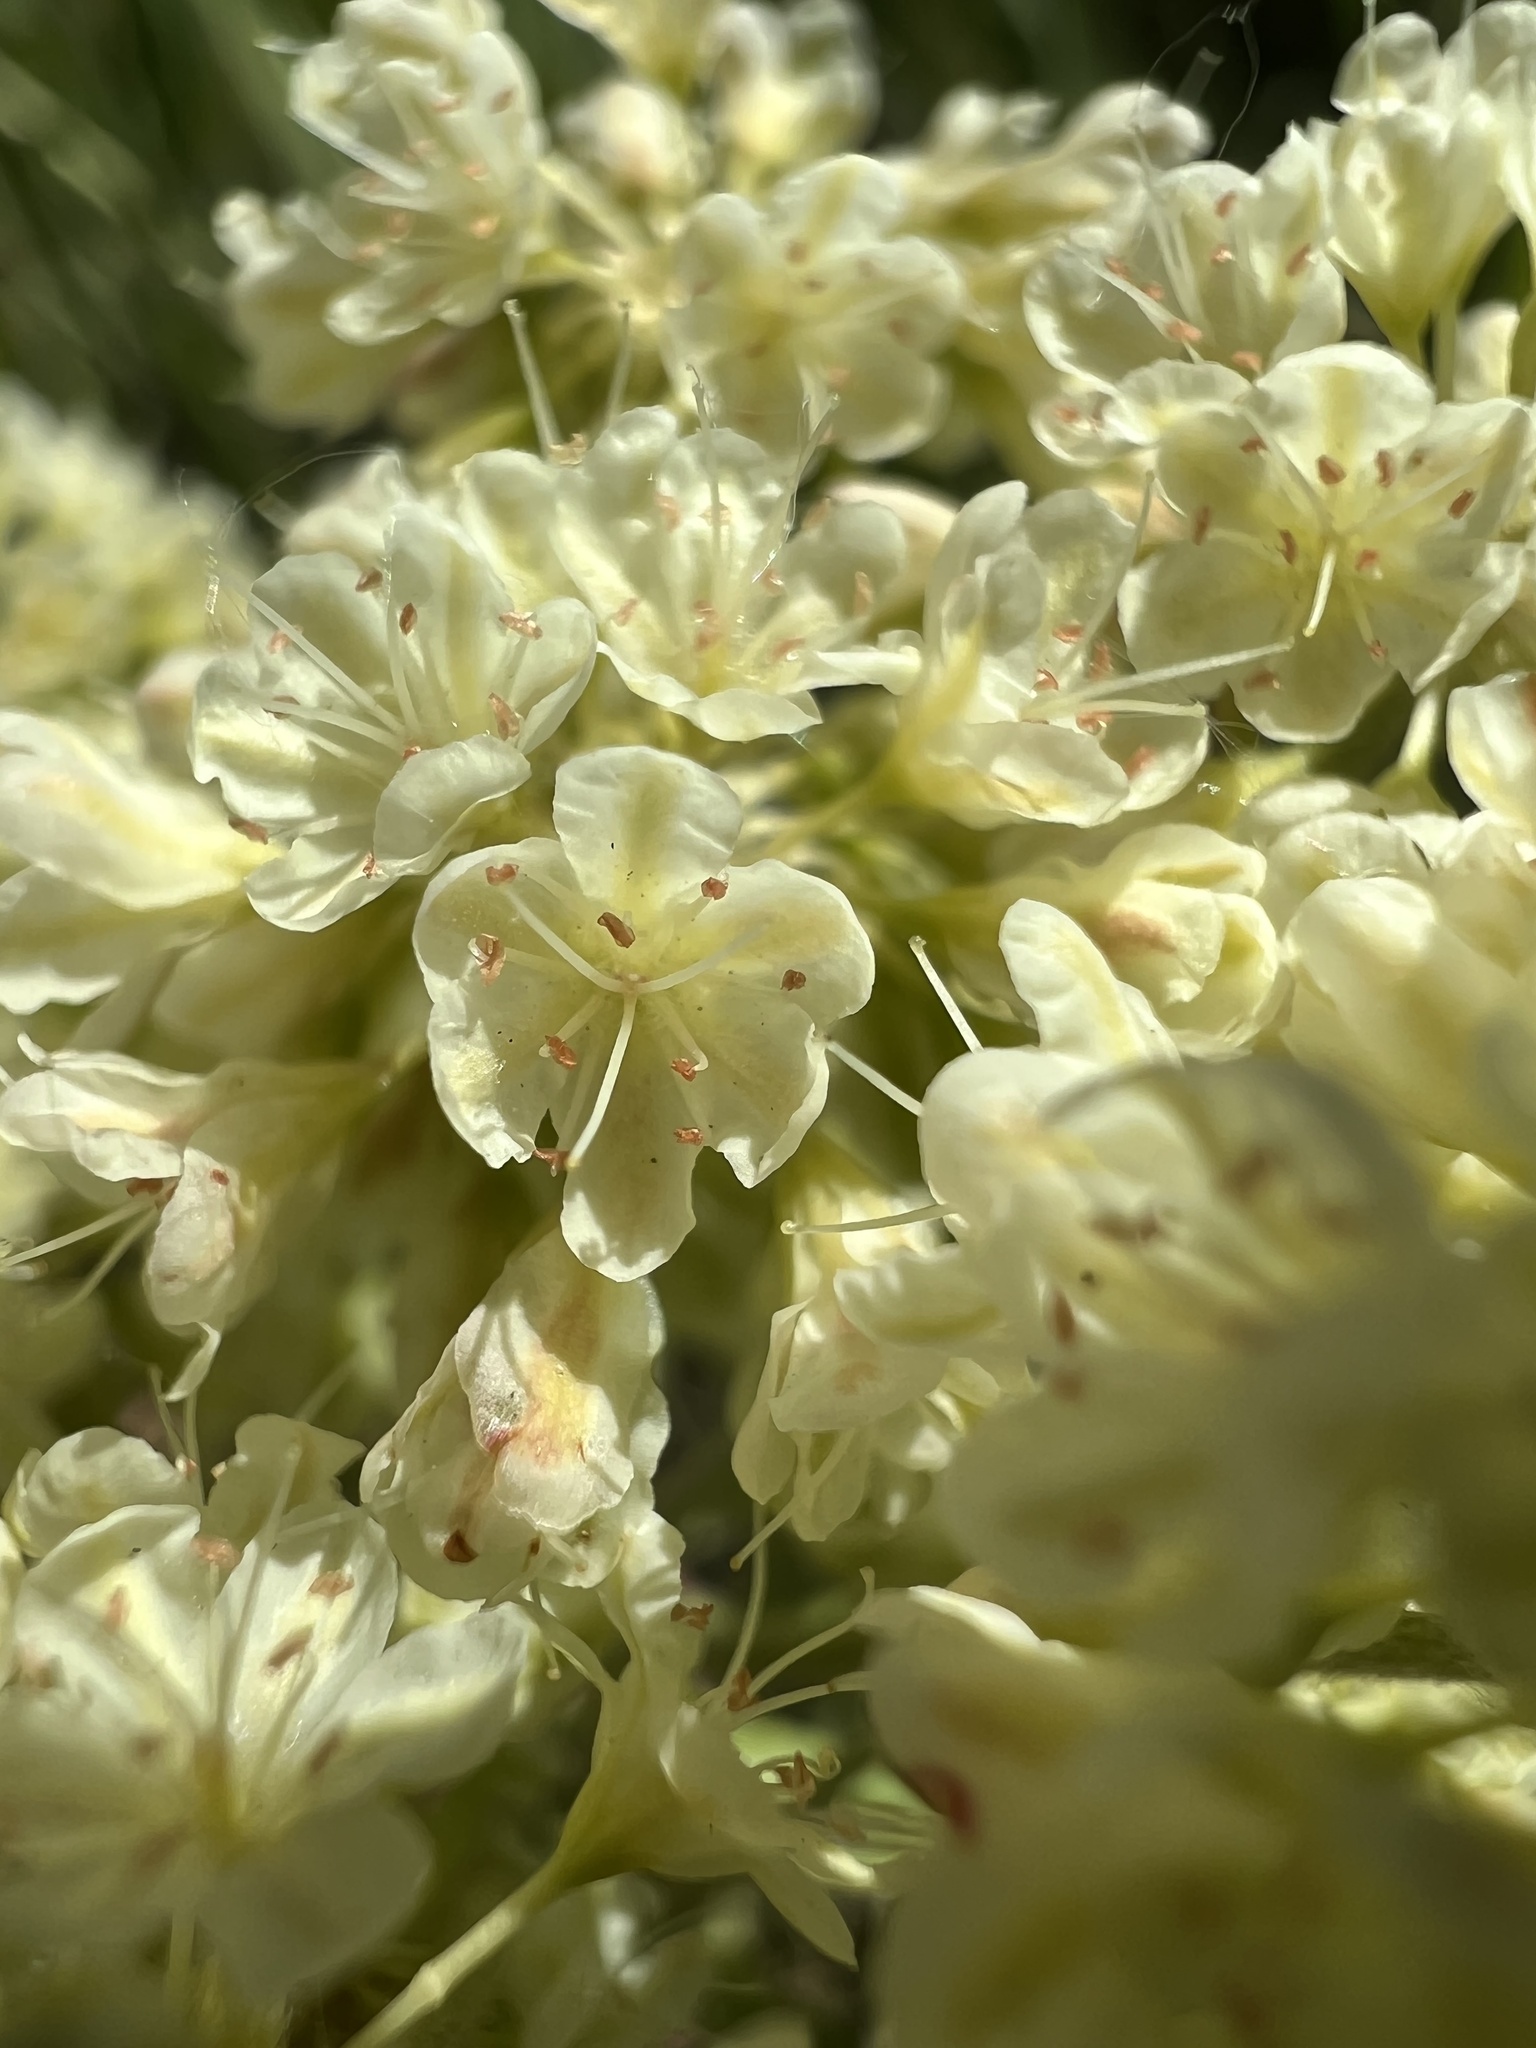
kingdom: Plantae
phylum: Tracheophyta
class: Magnoliopsida
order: Caryophyllales
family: Polygonaceae
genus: Eriogonum
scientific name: Eriogonum umbellatum
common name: Sulfur-buckwheat
